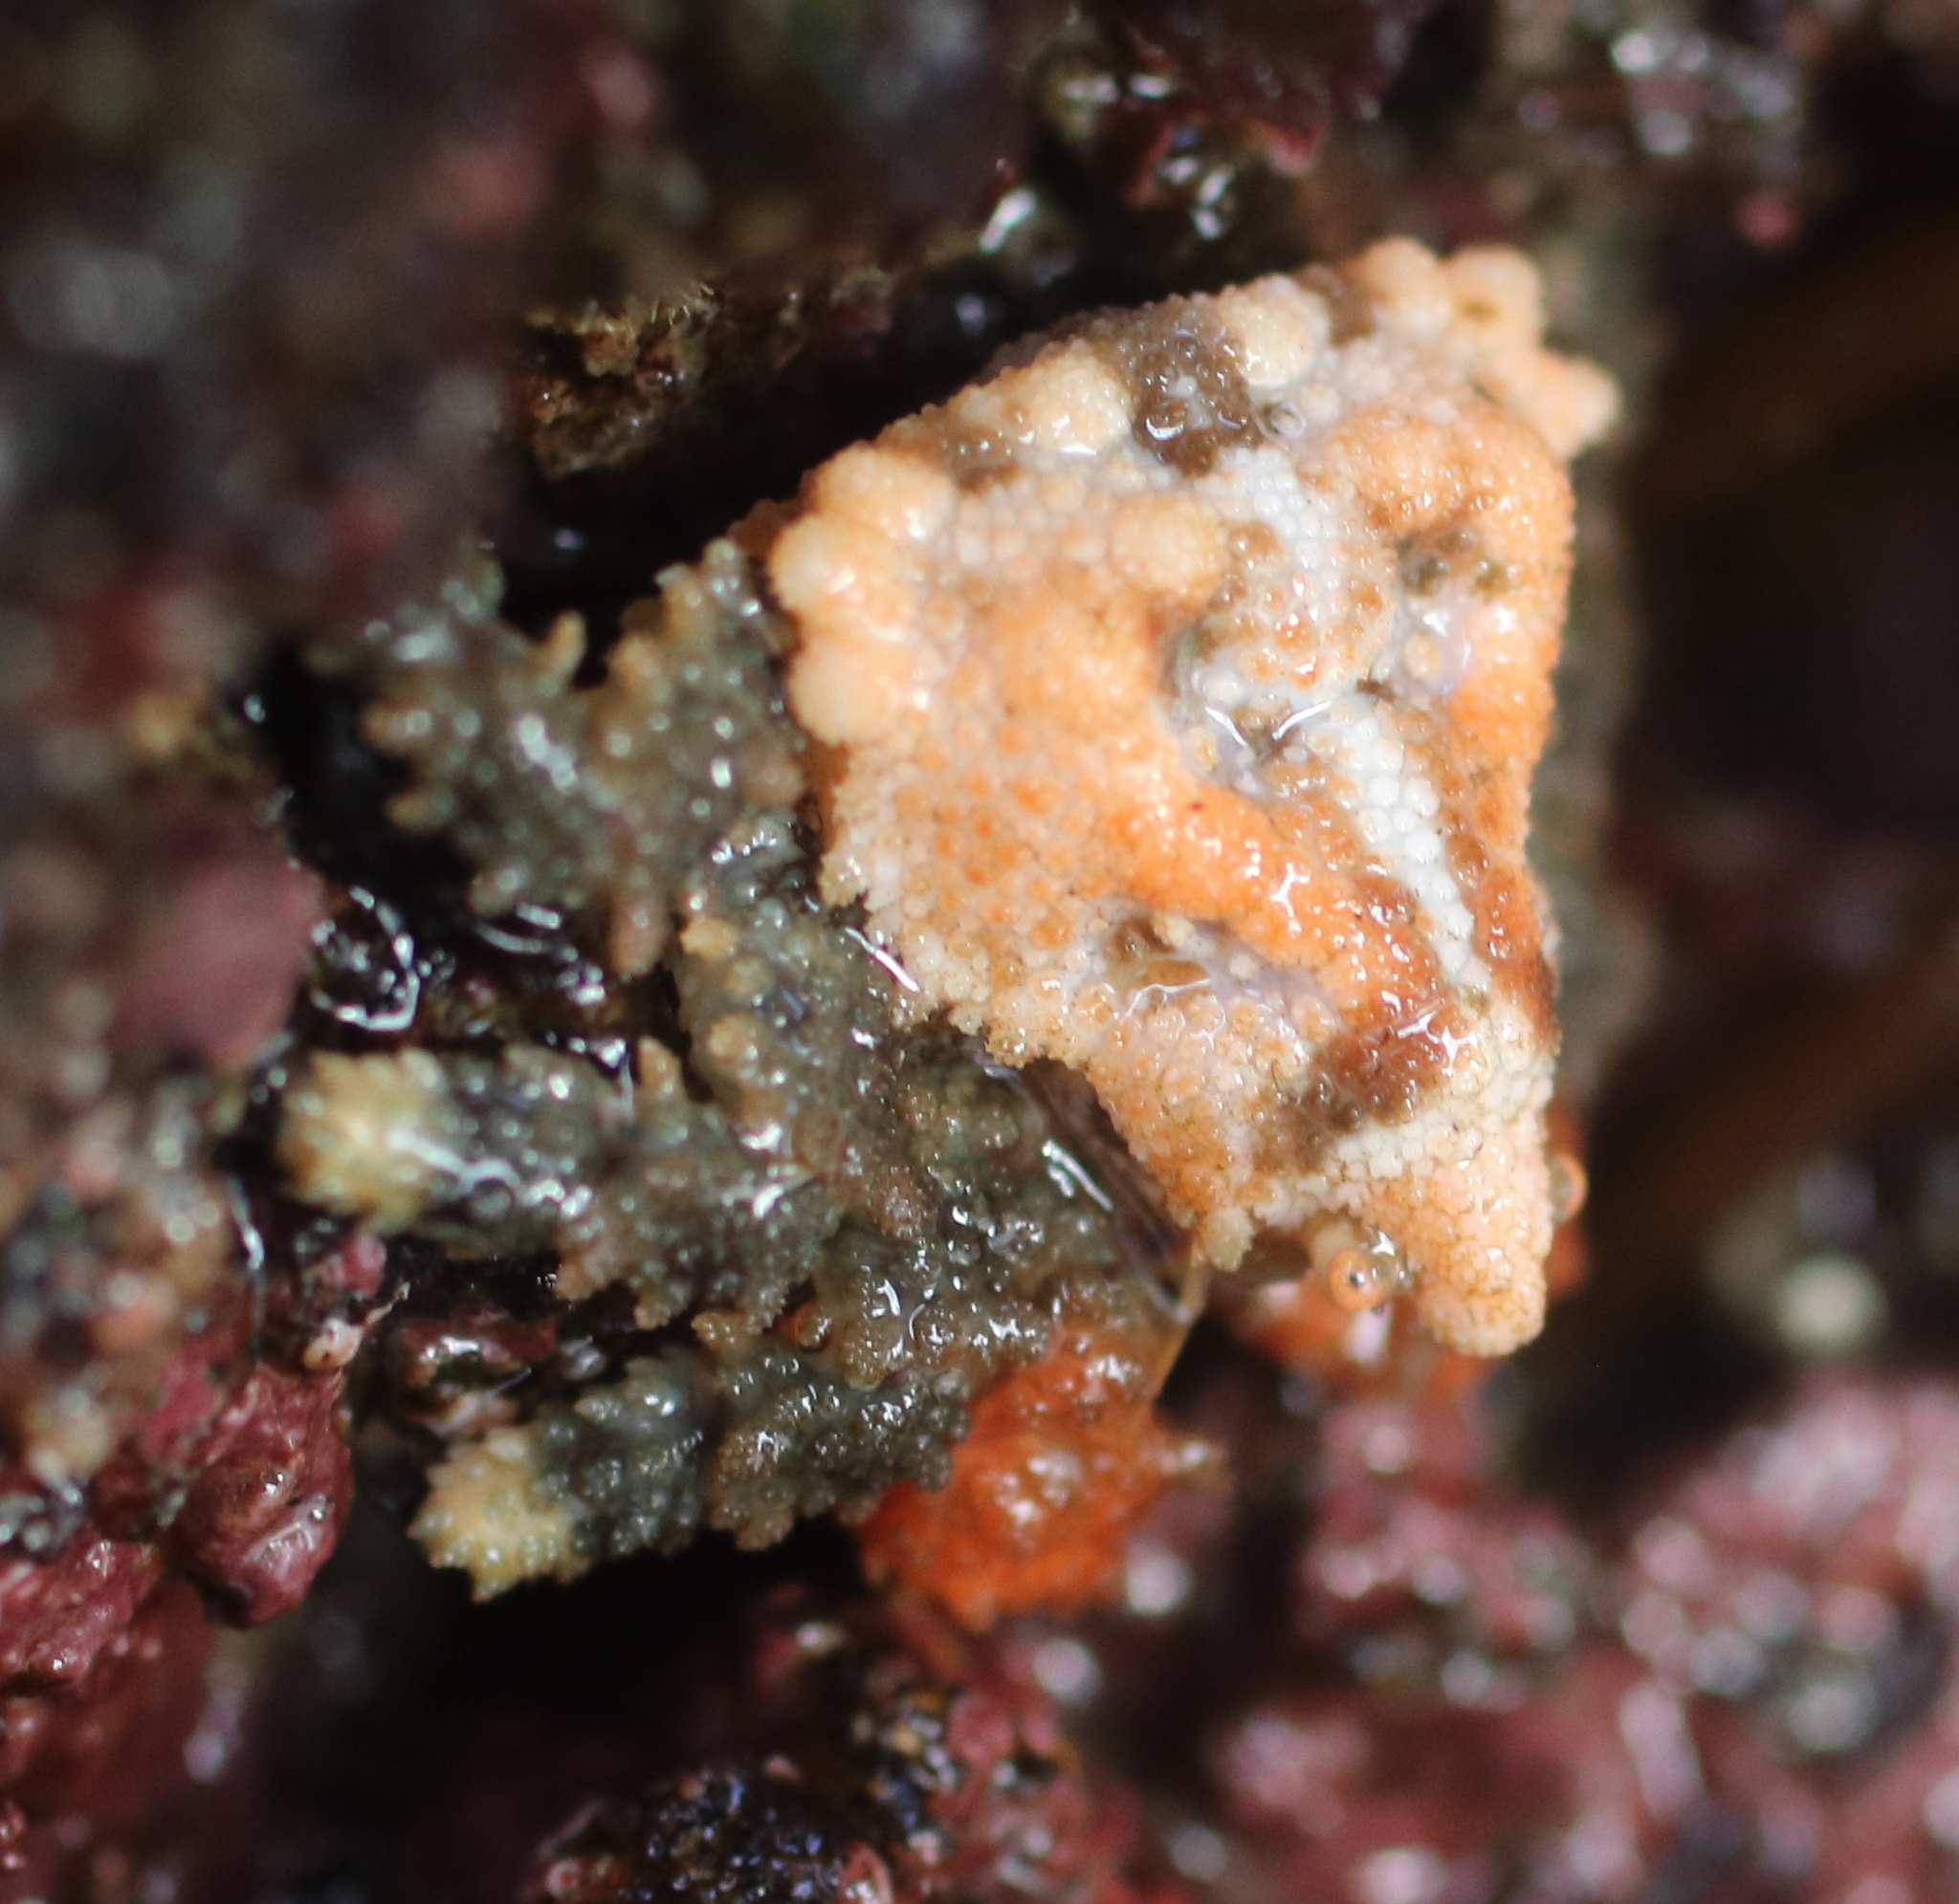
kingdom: Animalia
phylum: Arthropoda
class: Malacostraca
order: Decapoda
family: Lithodidae
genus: Phyllolithodes
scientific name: Phyllolithodes papillosus
